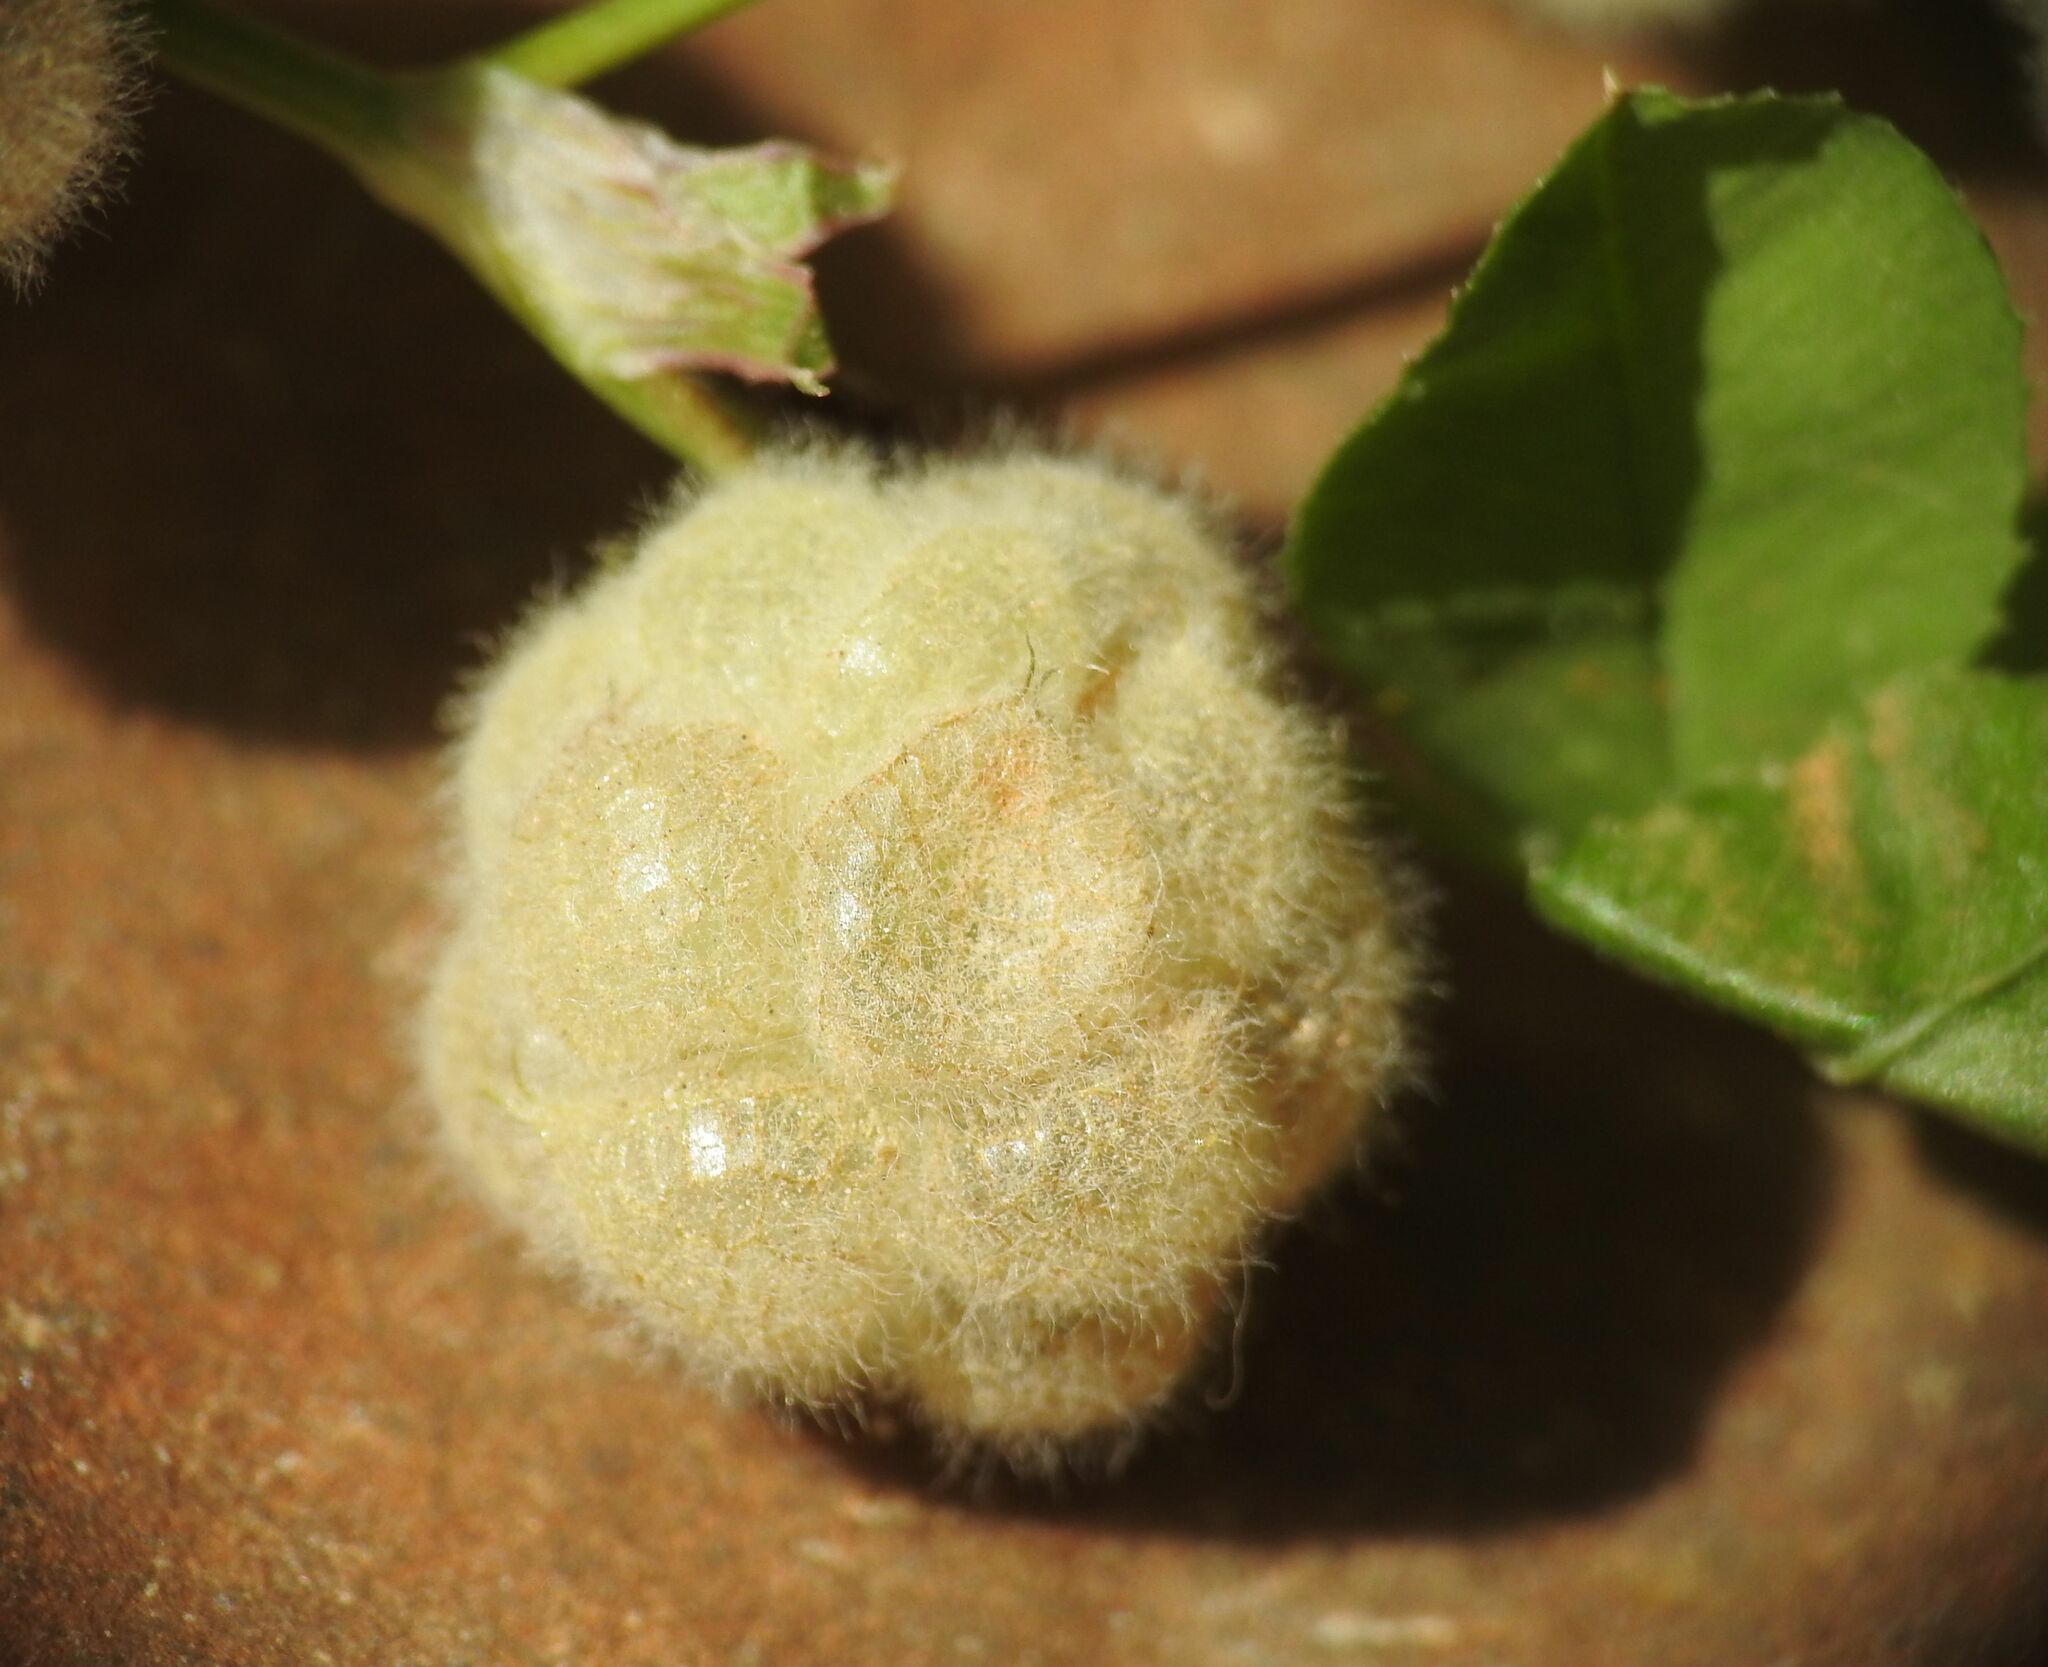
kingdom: Plantae
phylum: Tracheophyta
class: Magnoliopsida
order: Fabales
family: Fabaceae
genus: Trifolium
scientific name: Trifolium tomentosum
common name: Woolly clover
